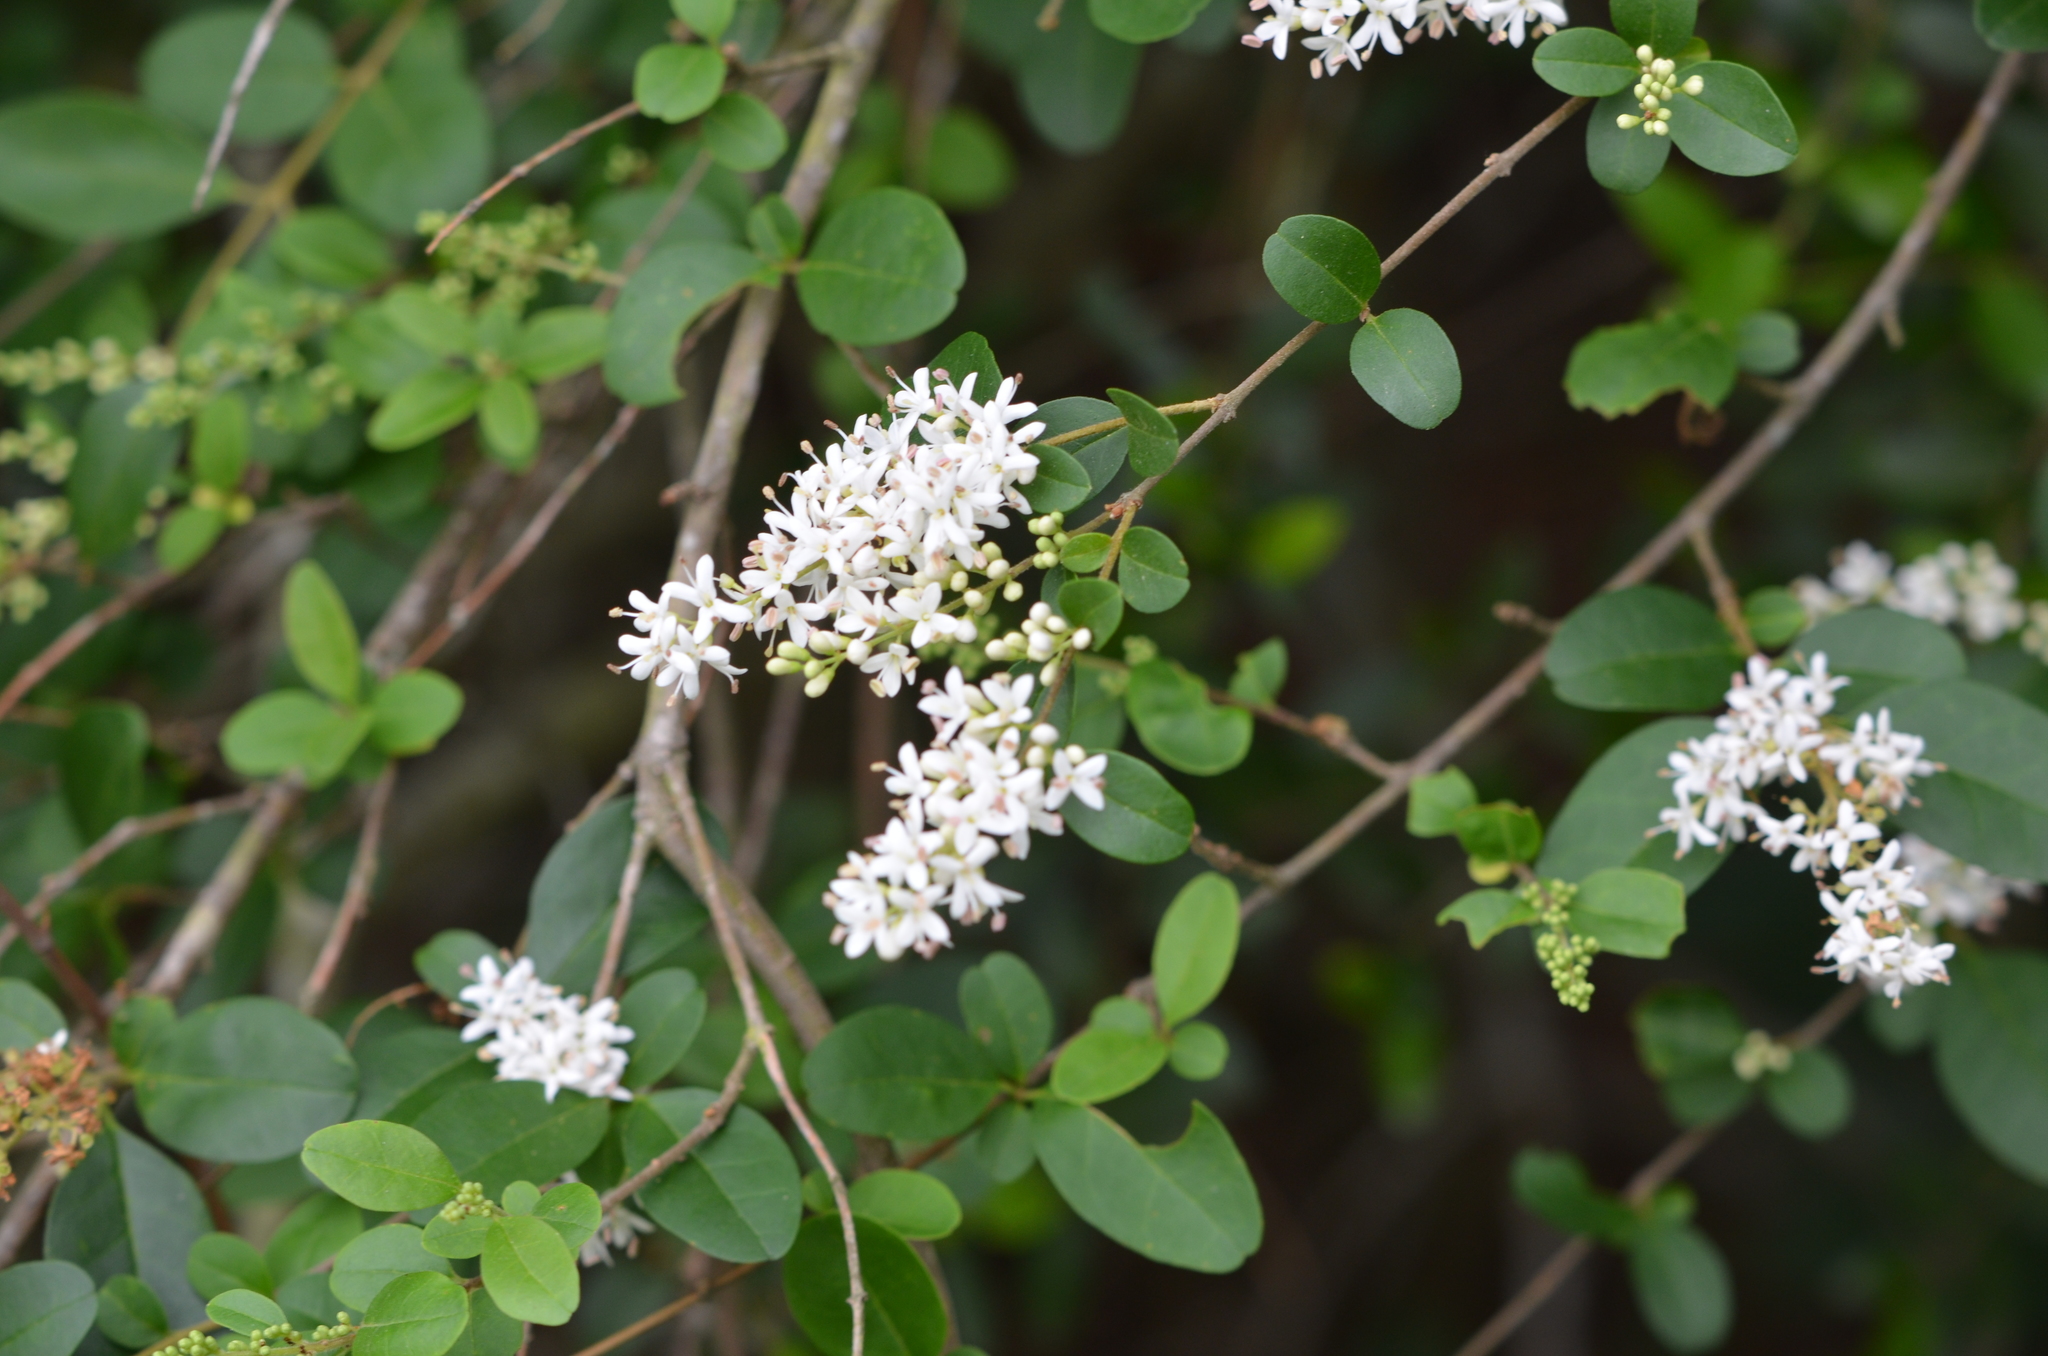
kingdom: Plantae
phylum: Tracheophyta
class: Magnoliopsida
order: Lamiales
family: Oleaceae
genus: Ligustrum
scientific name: Ligustrum sinense
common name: Chinese privet
